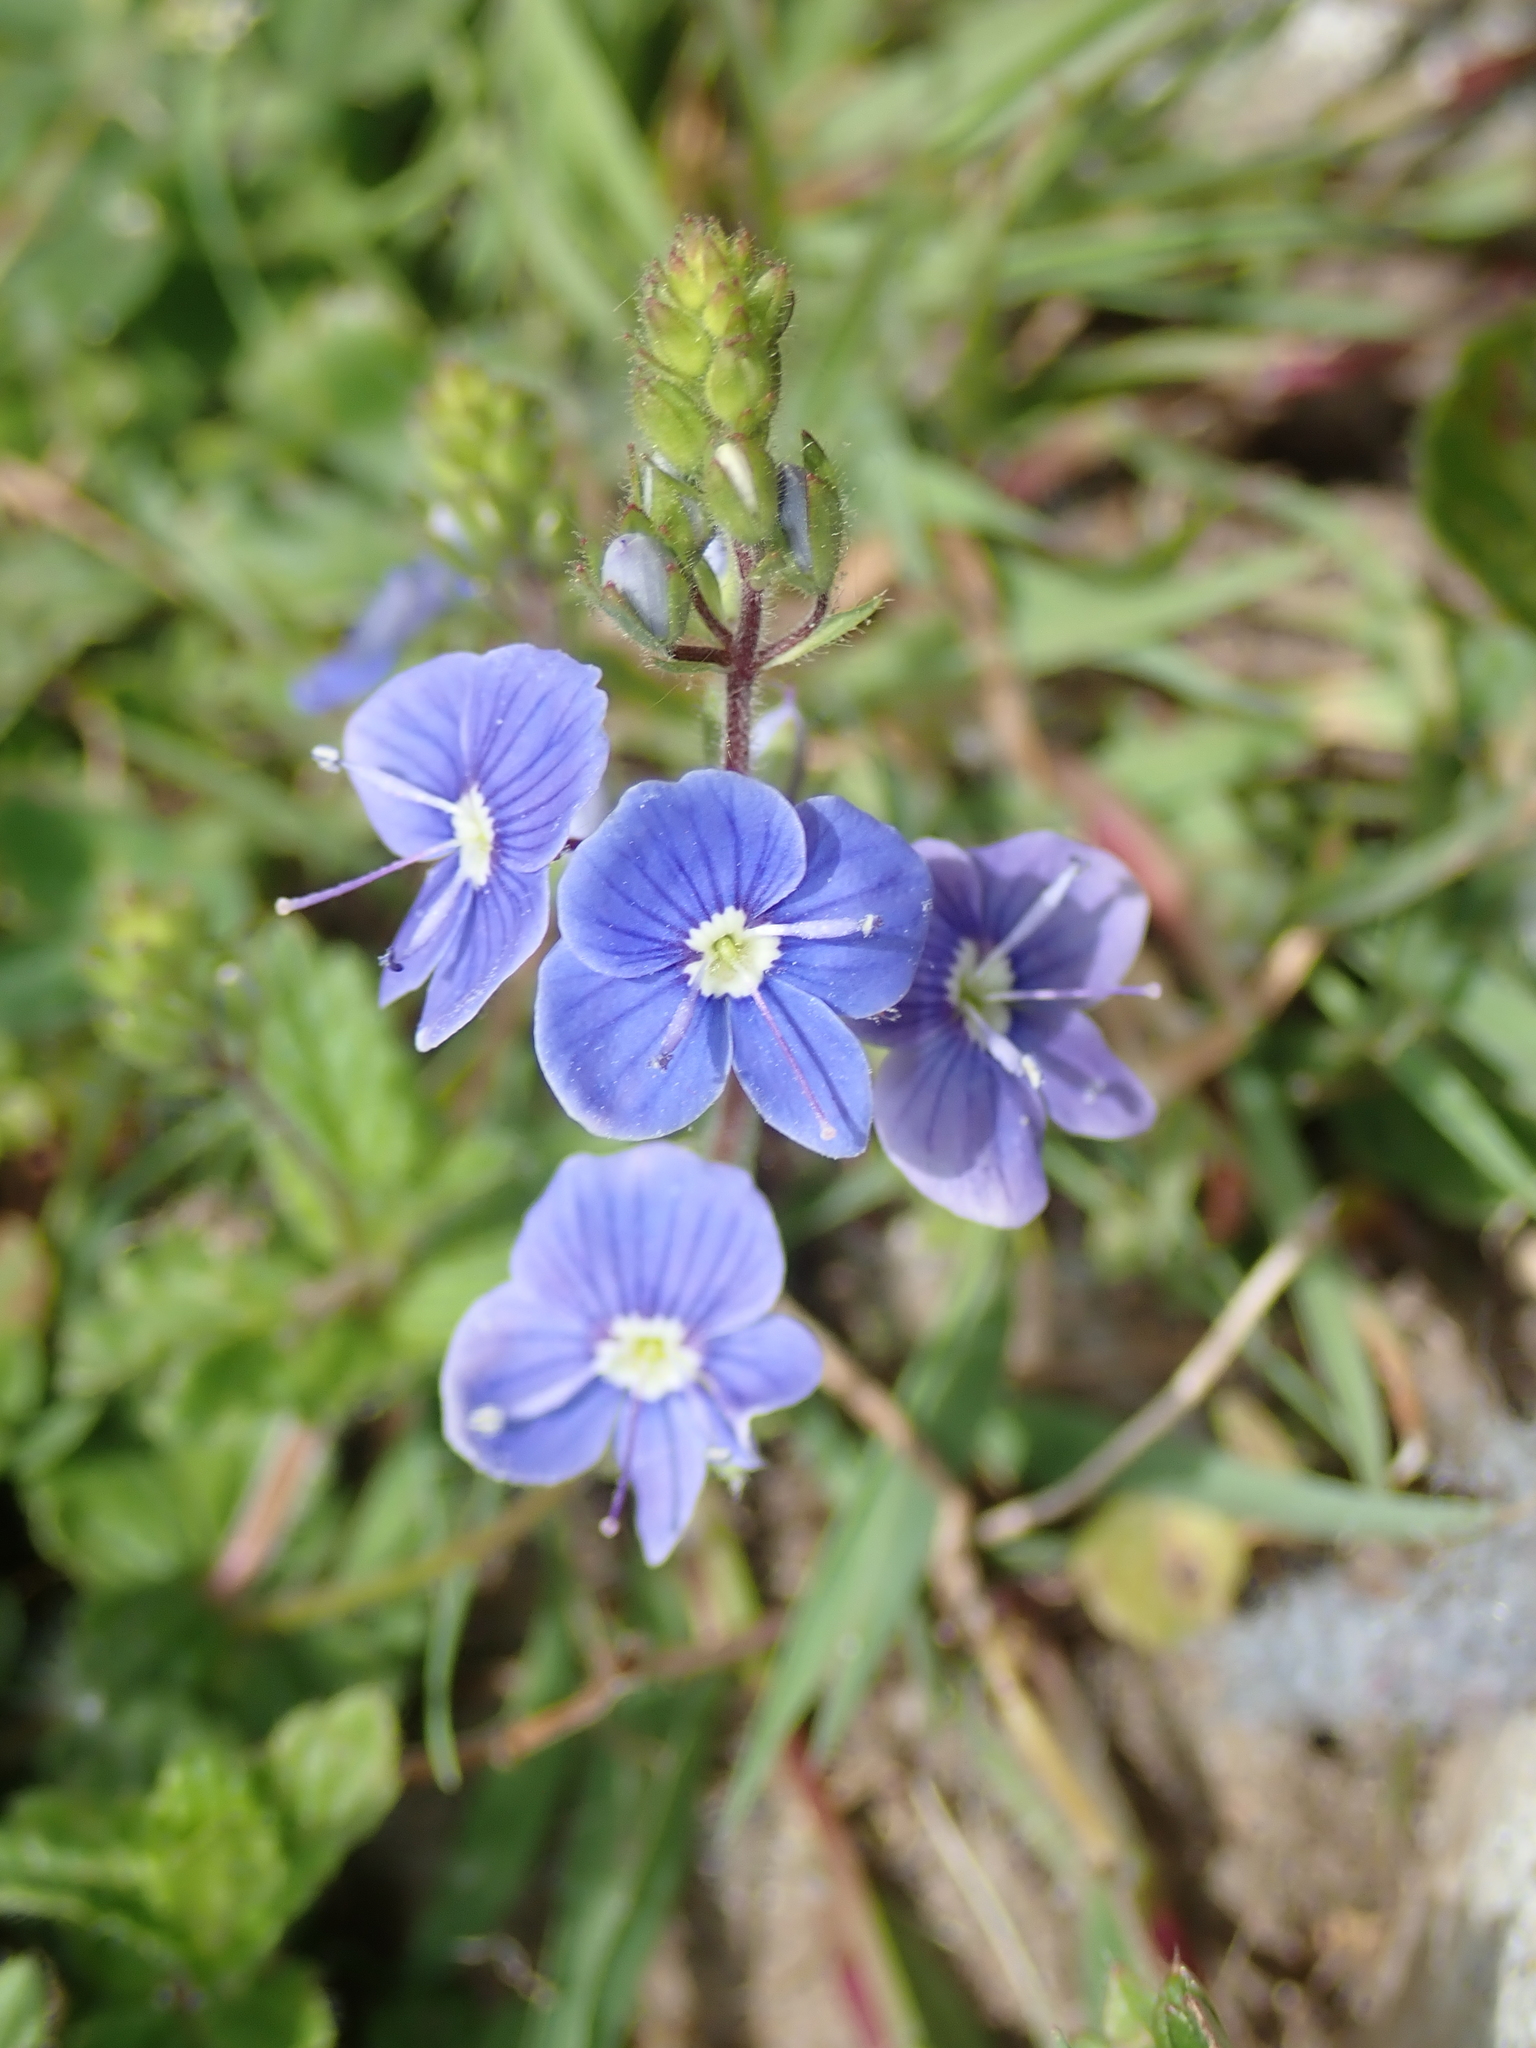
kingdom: Plantae
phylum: Tracheophyta
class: Magnoliopsida
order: Lamiales
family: Plantaginaceae
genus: Veronica
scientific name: Veronica chamaedrys
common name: Germander speedwell
